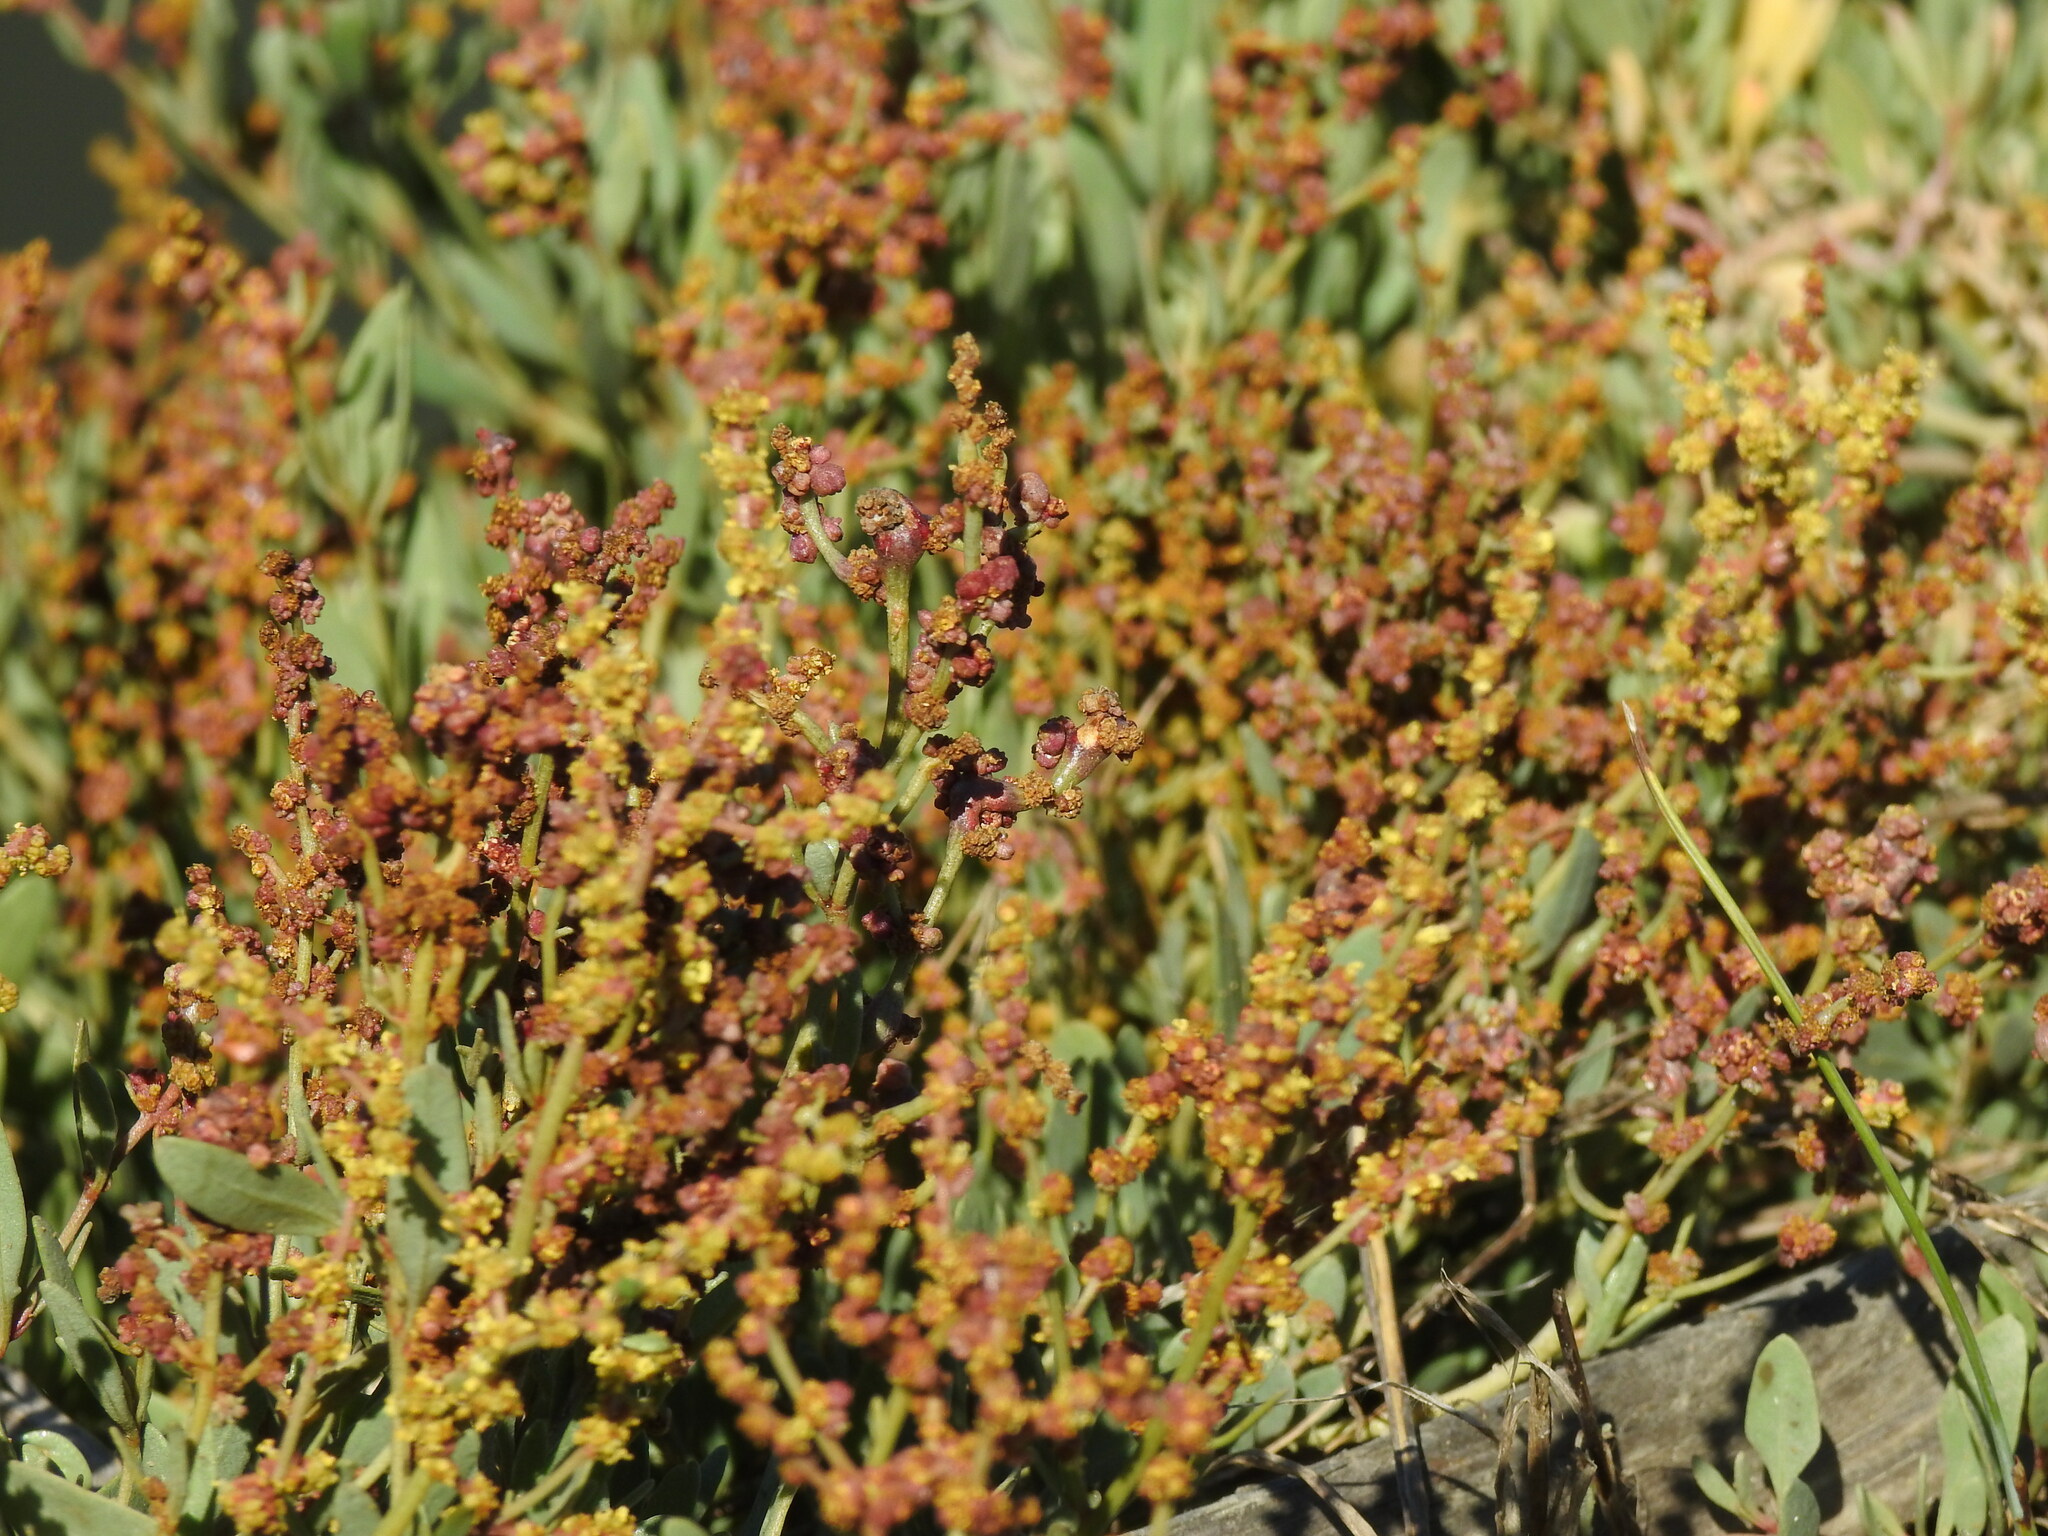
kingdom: Animalia
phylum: Arthropoda
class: Arachnida
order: Trombidiformes
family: Eriophyidae
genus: Eriophyes
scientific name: Eriophyes obiones
